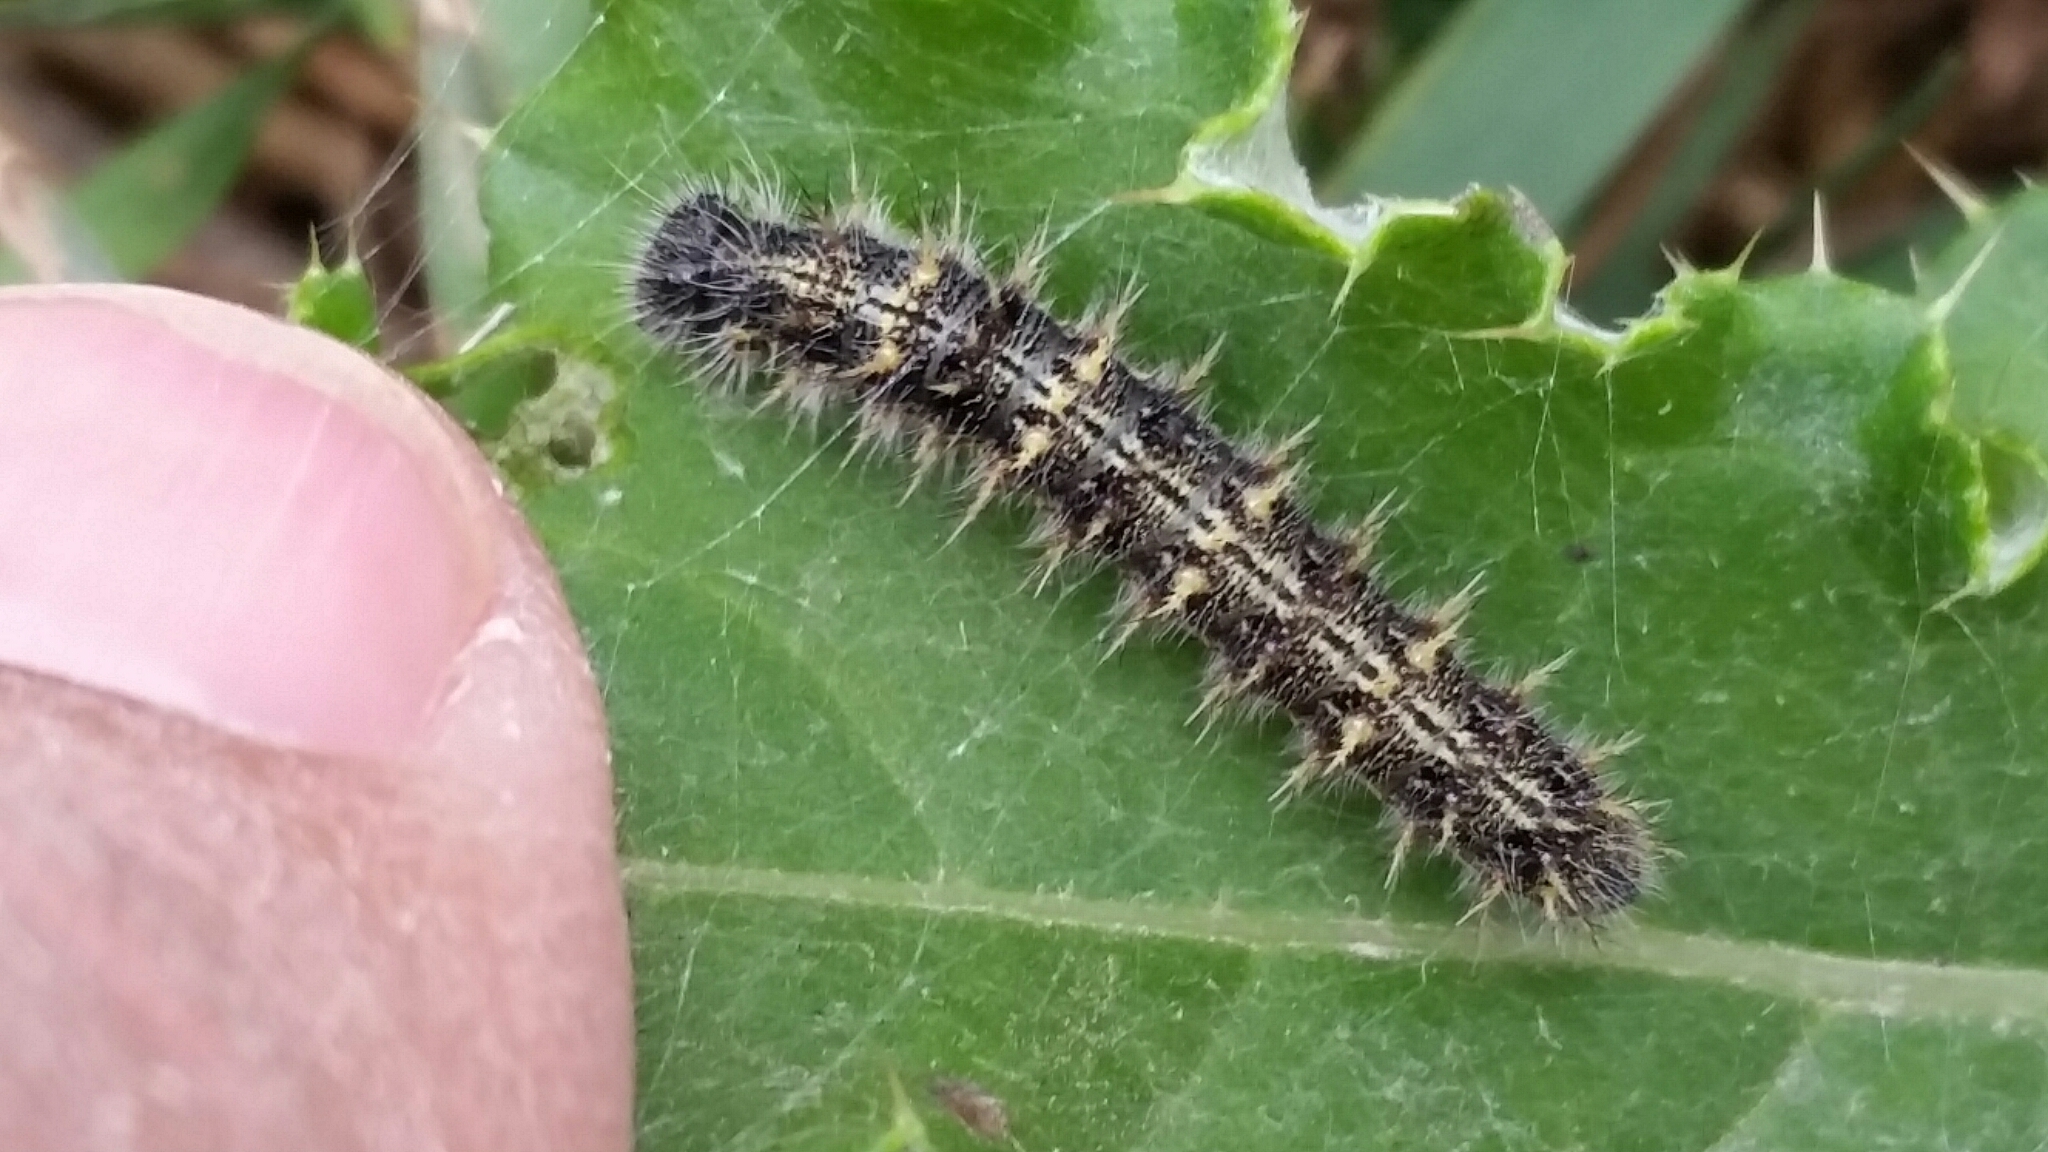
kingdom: Animalia
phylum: Arthropoda
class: Insecta
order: Lepidoptera
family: Nymphalidae
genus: Vanessa
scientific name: Vanessa cardui
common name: Painted lady
